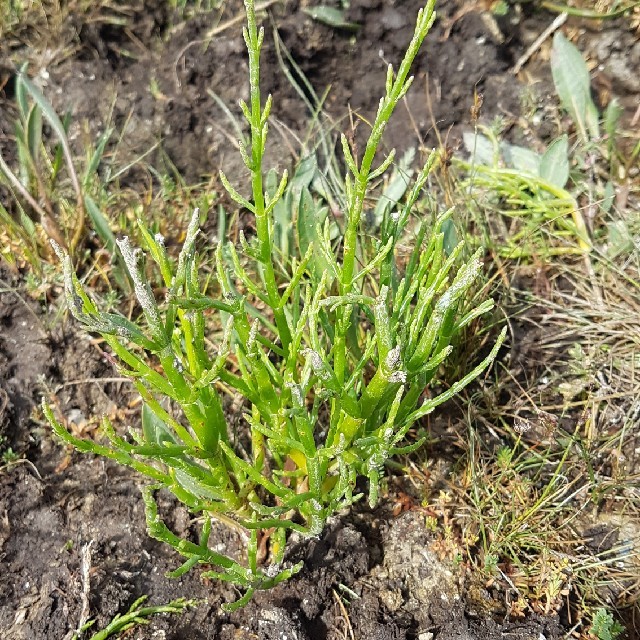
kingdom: Plantae
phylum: Tracheophyta
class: Magnoliopsida
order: Caryophyllales
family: Amaranthaceae
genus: Salicornia
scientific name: Salicornia europaea
